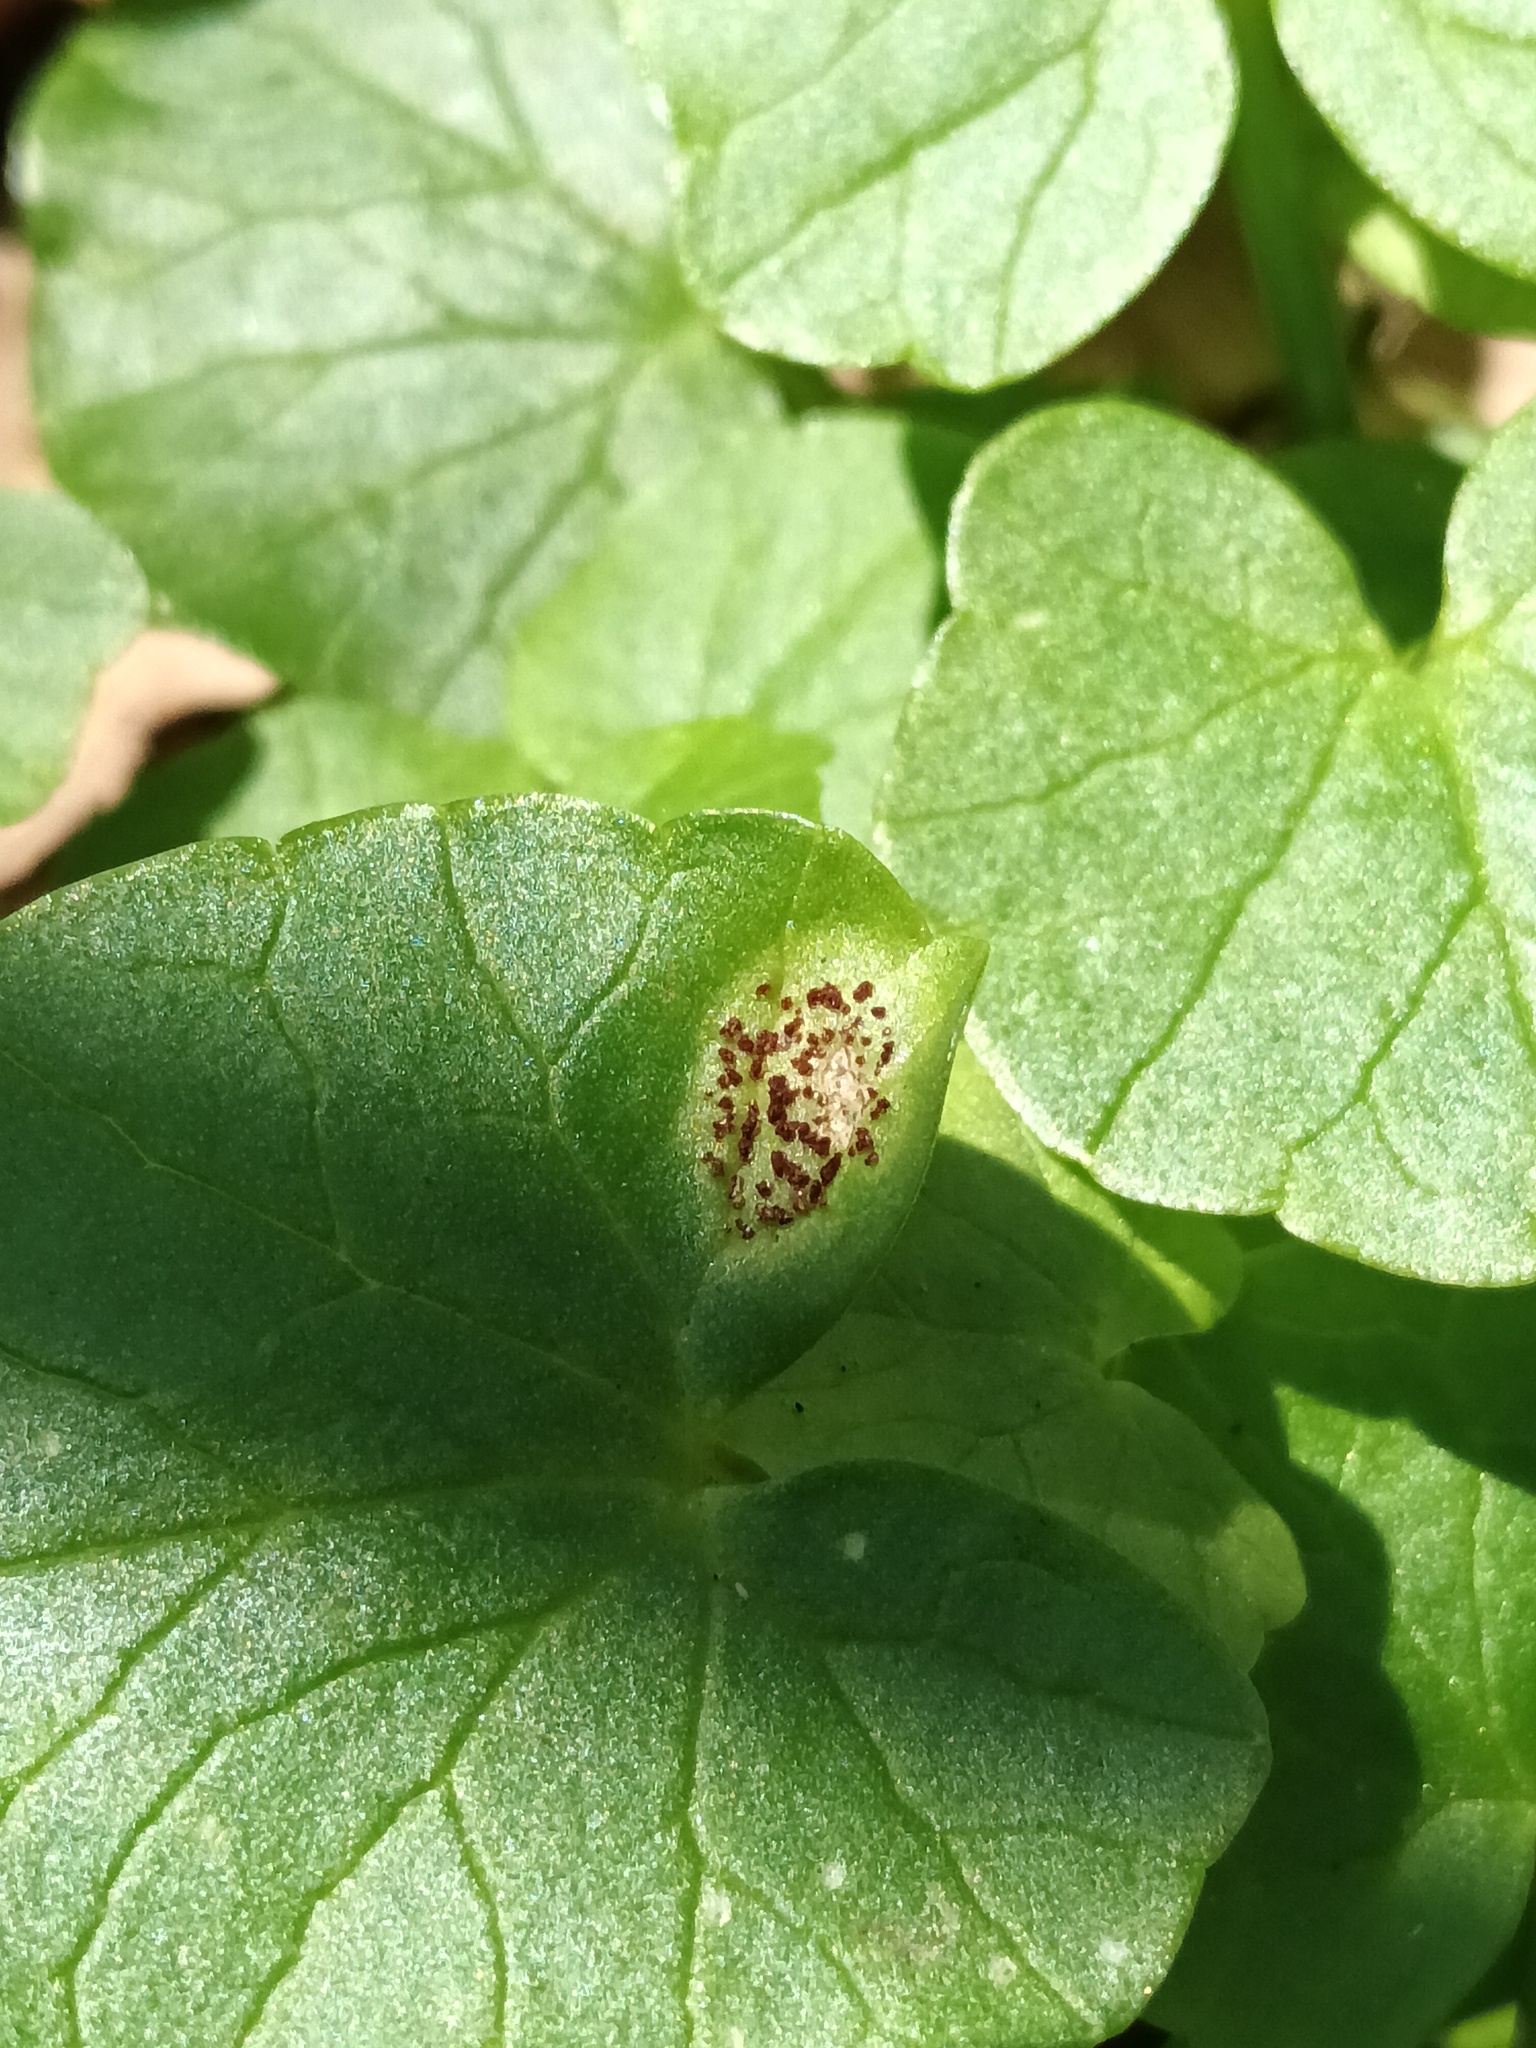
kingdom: Fungi
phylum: Basidiomycota
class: Pucciniomycetes
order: Pucciniales
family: Pucciniaceae
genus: Uromyces
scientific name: Uromyces ficariae
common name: Bitter chocolate rust
